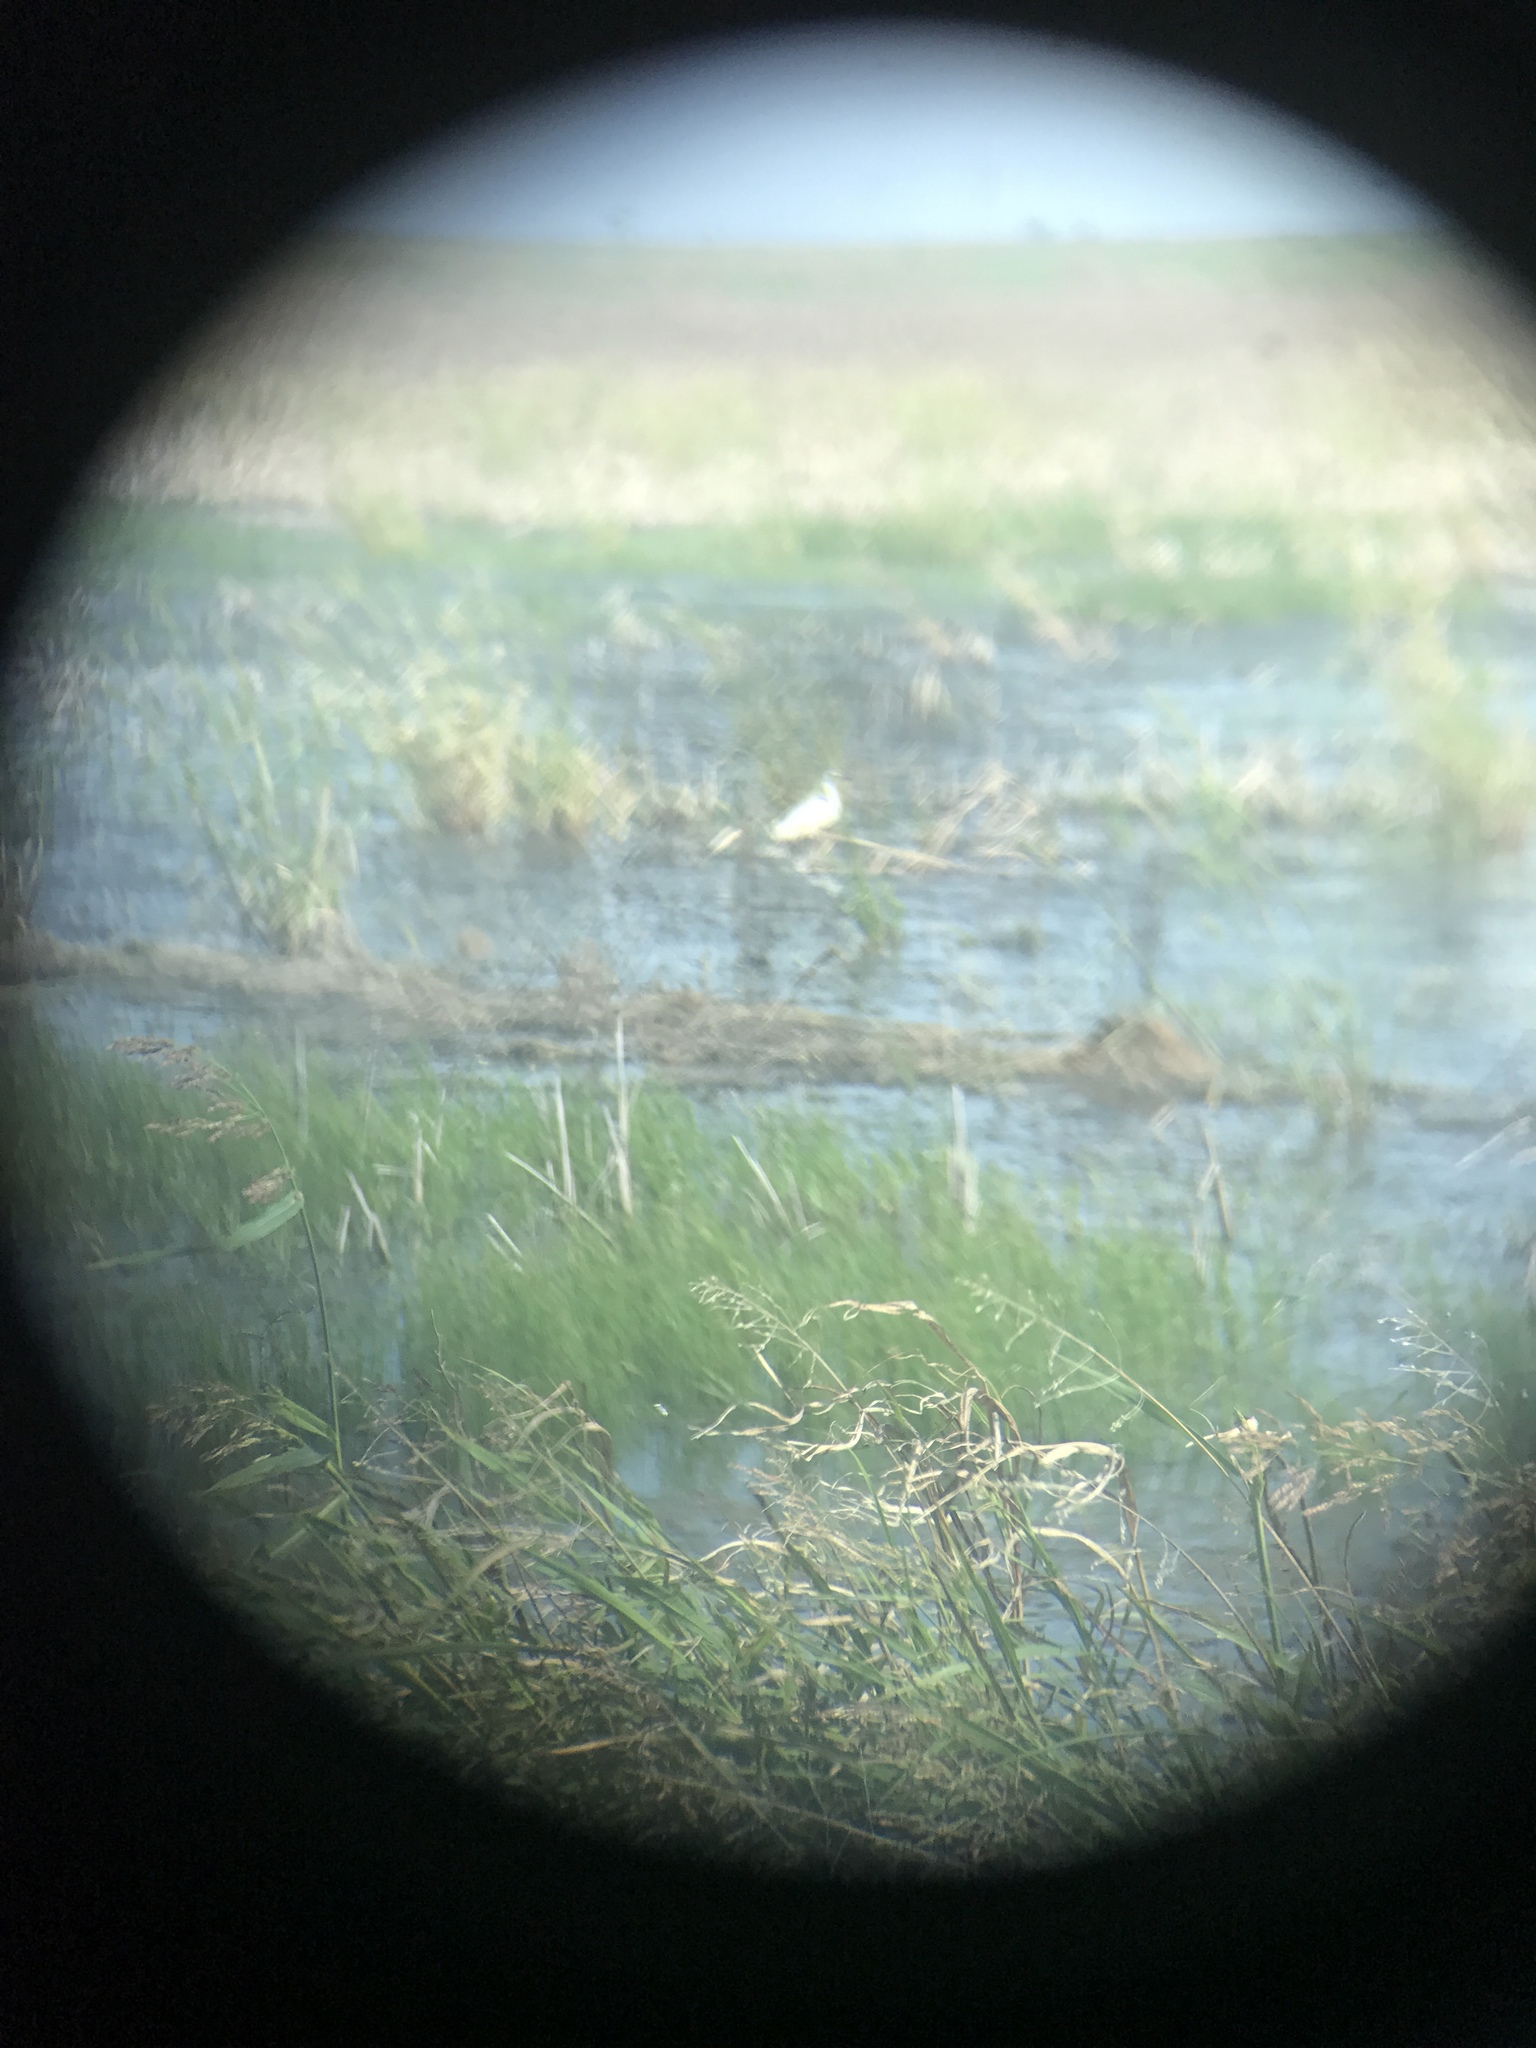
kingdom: Animalia
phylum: Chordata
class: Aves
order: Pelecaniformes
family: Ardeidae
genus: Egretta
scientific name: Egretta thula
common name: Snowy egret
